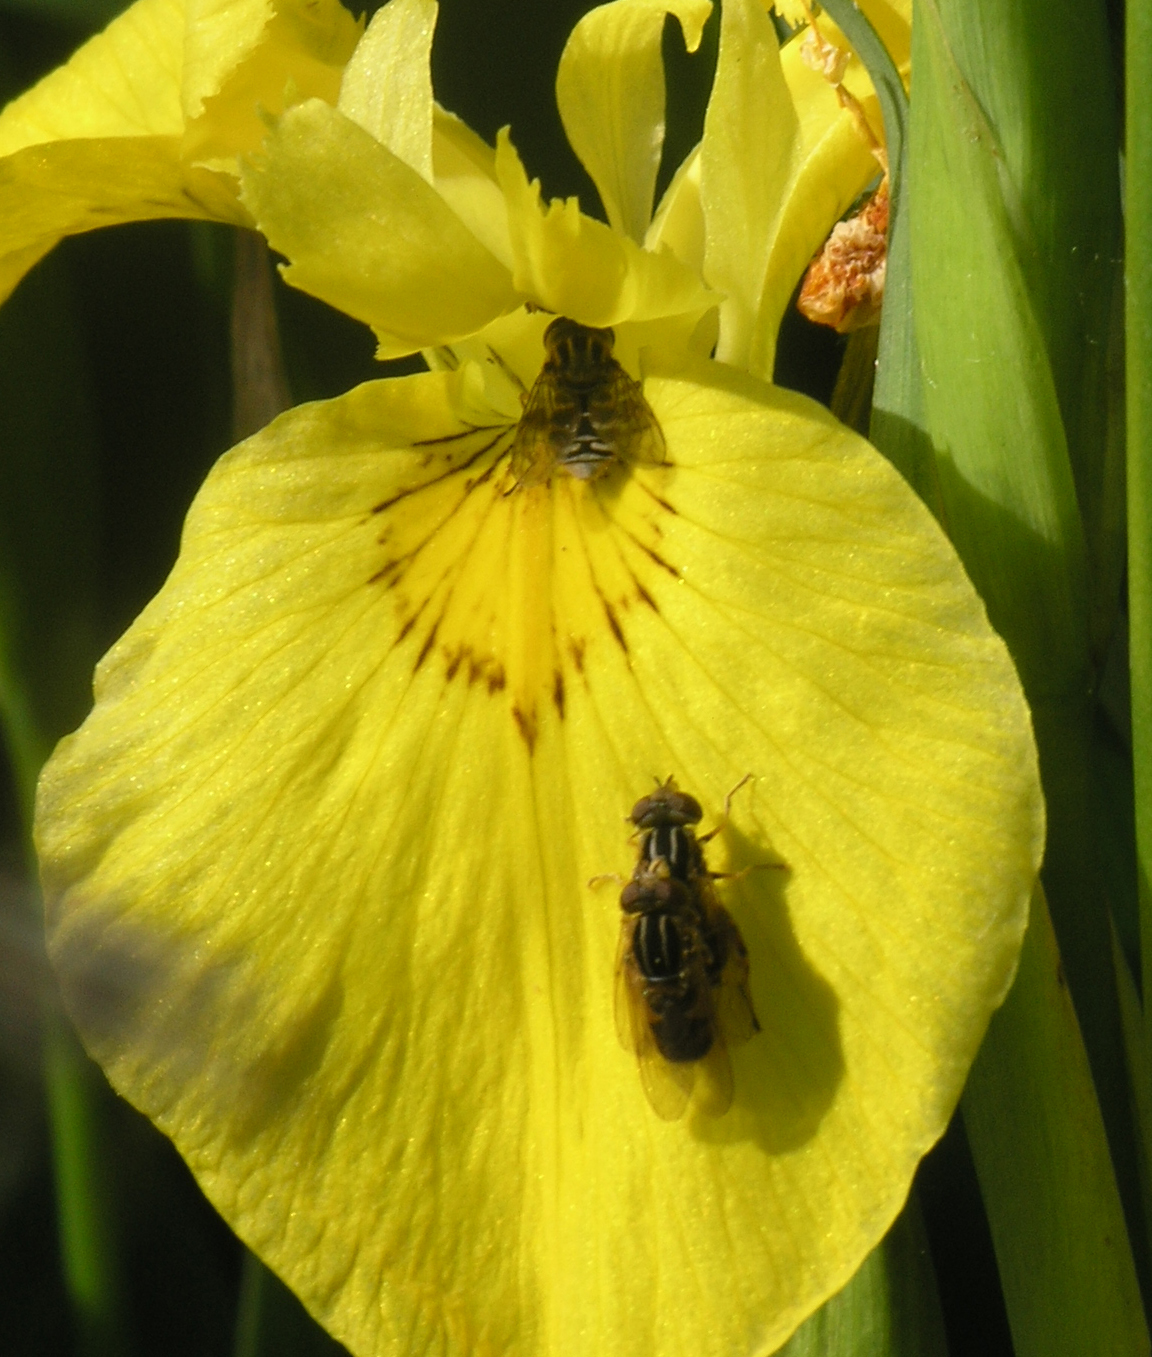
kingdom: Animalia
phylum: Arthropoda
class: Insecta
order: Diptera
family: Syrphidae
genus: Eurimyia
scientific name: Eurimyia lineatus
